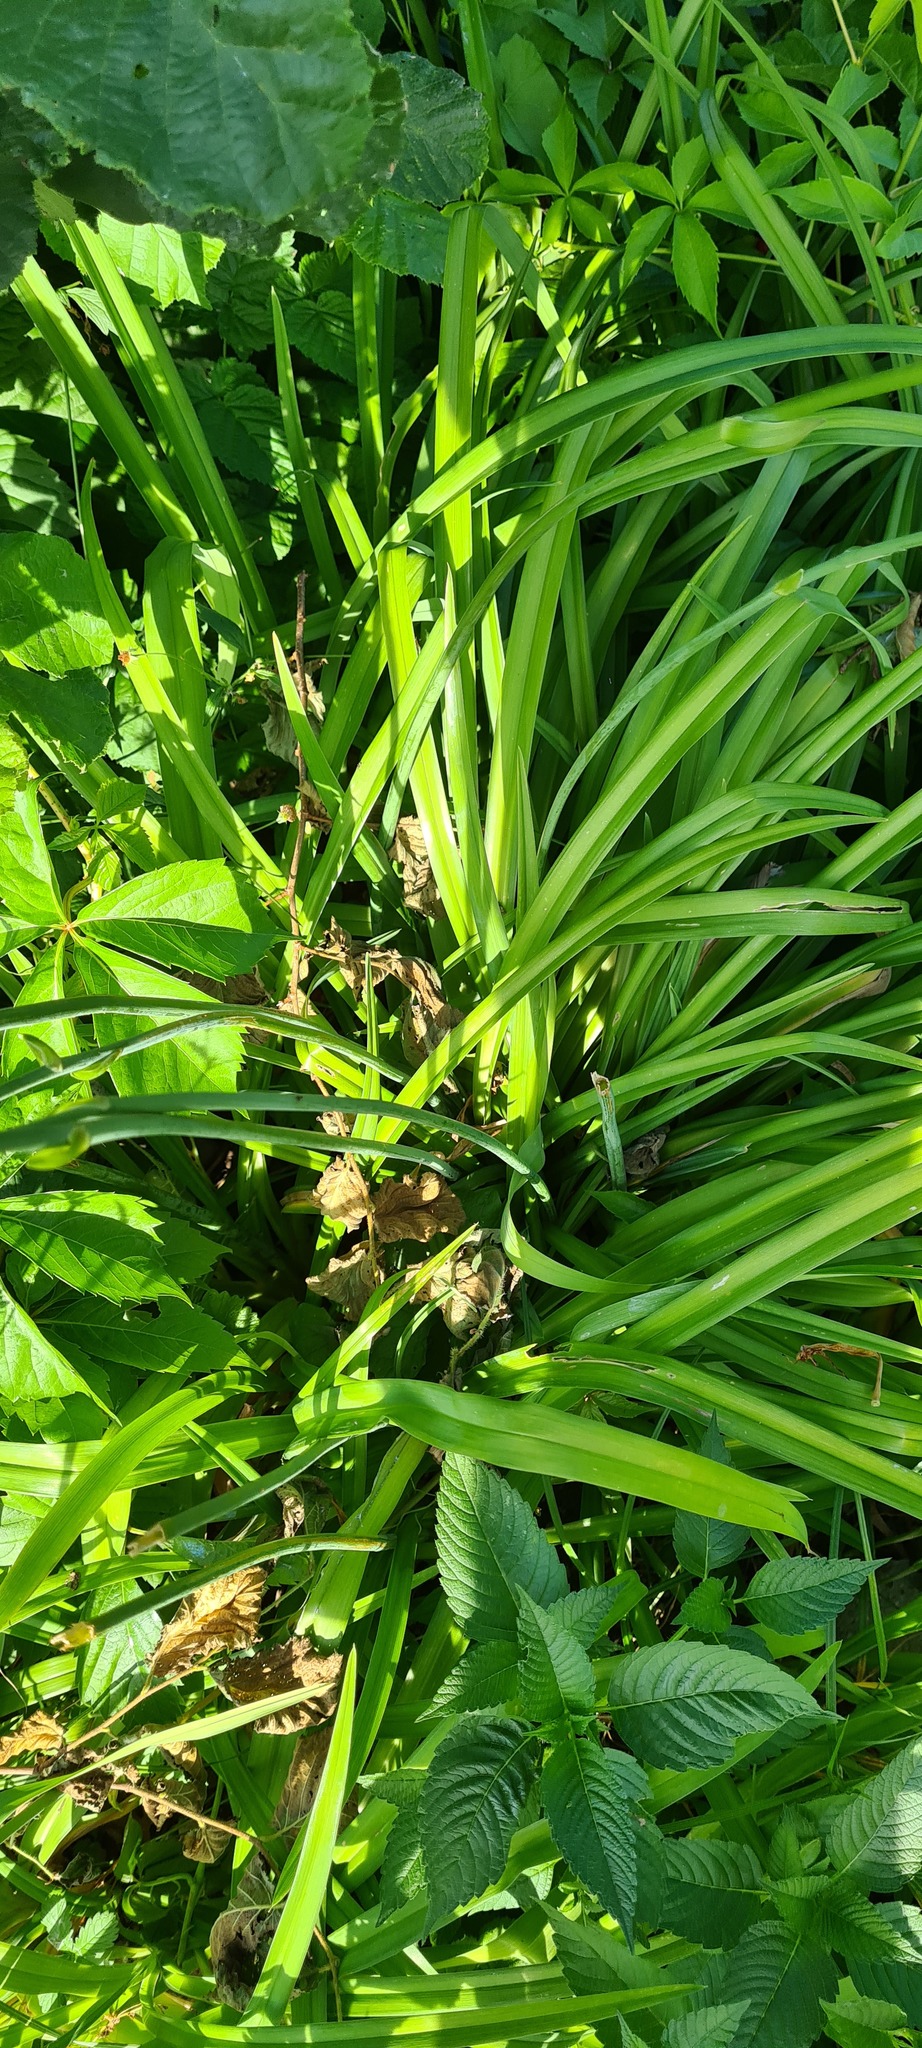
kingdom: Plantae
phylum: Tracheophyta
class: Liliopsida
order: Asparagales
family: Asphodelaceae
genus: Hemerocallis
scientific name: Hemerocallis fulva
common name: Orange day-lily
